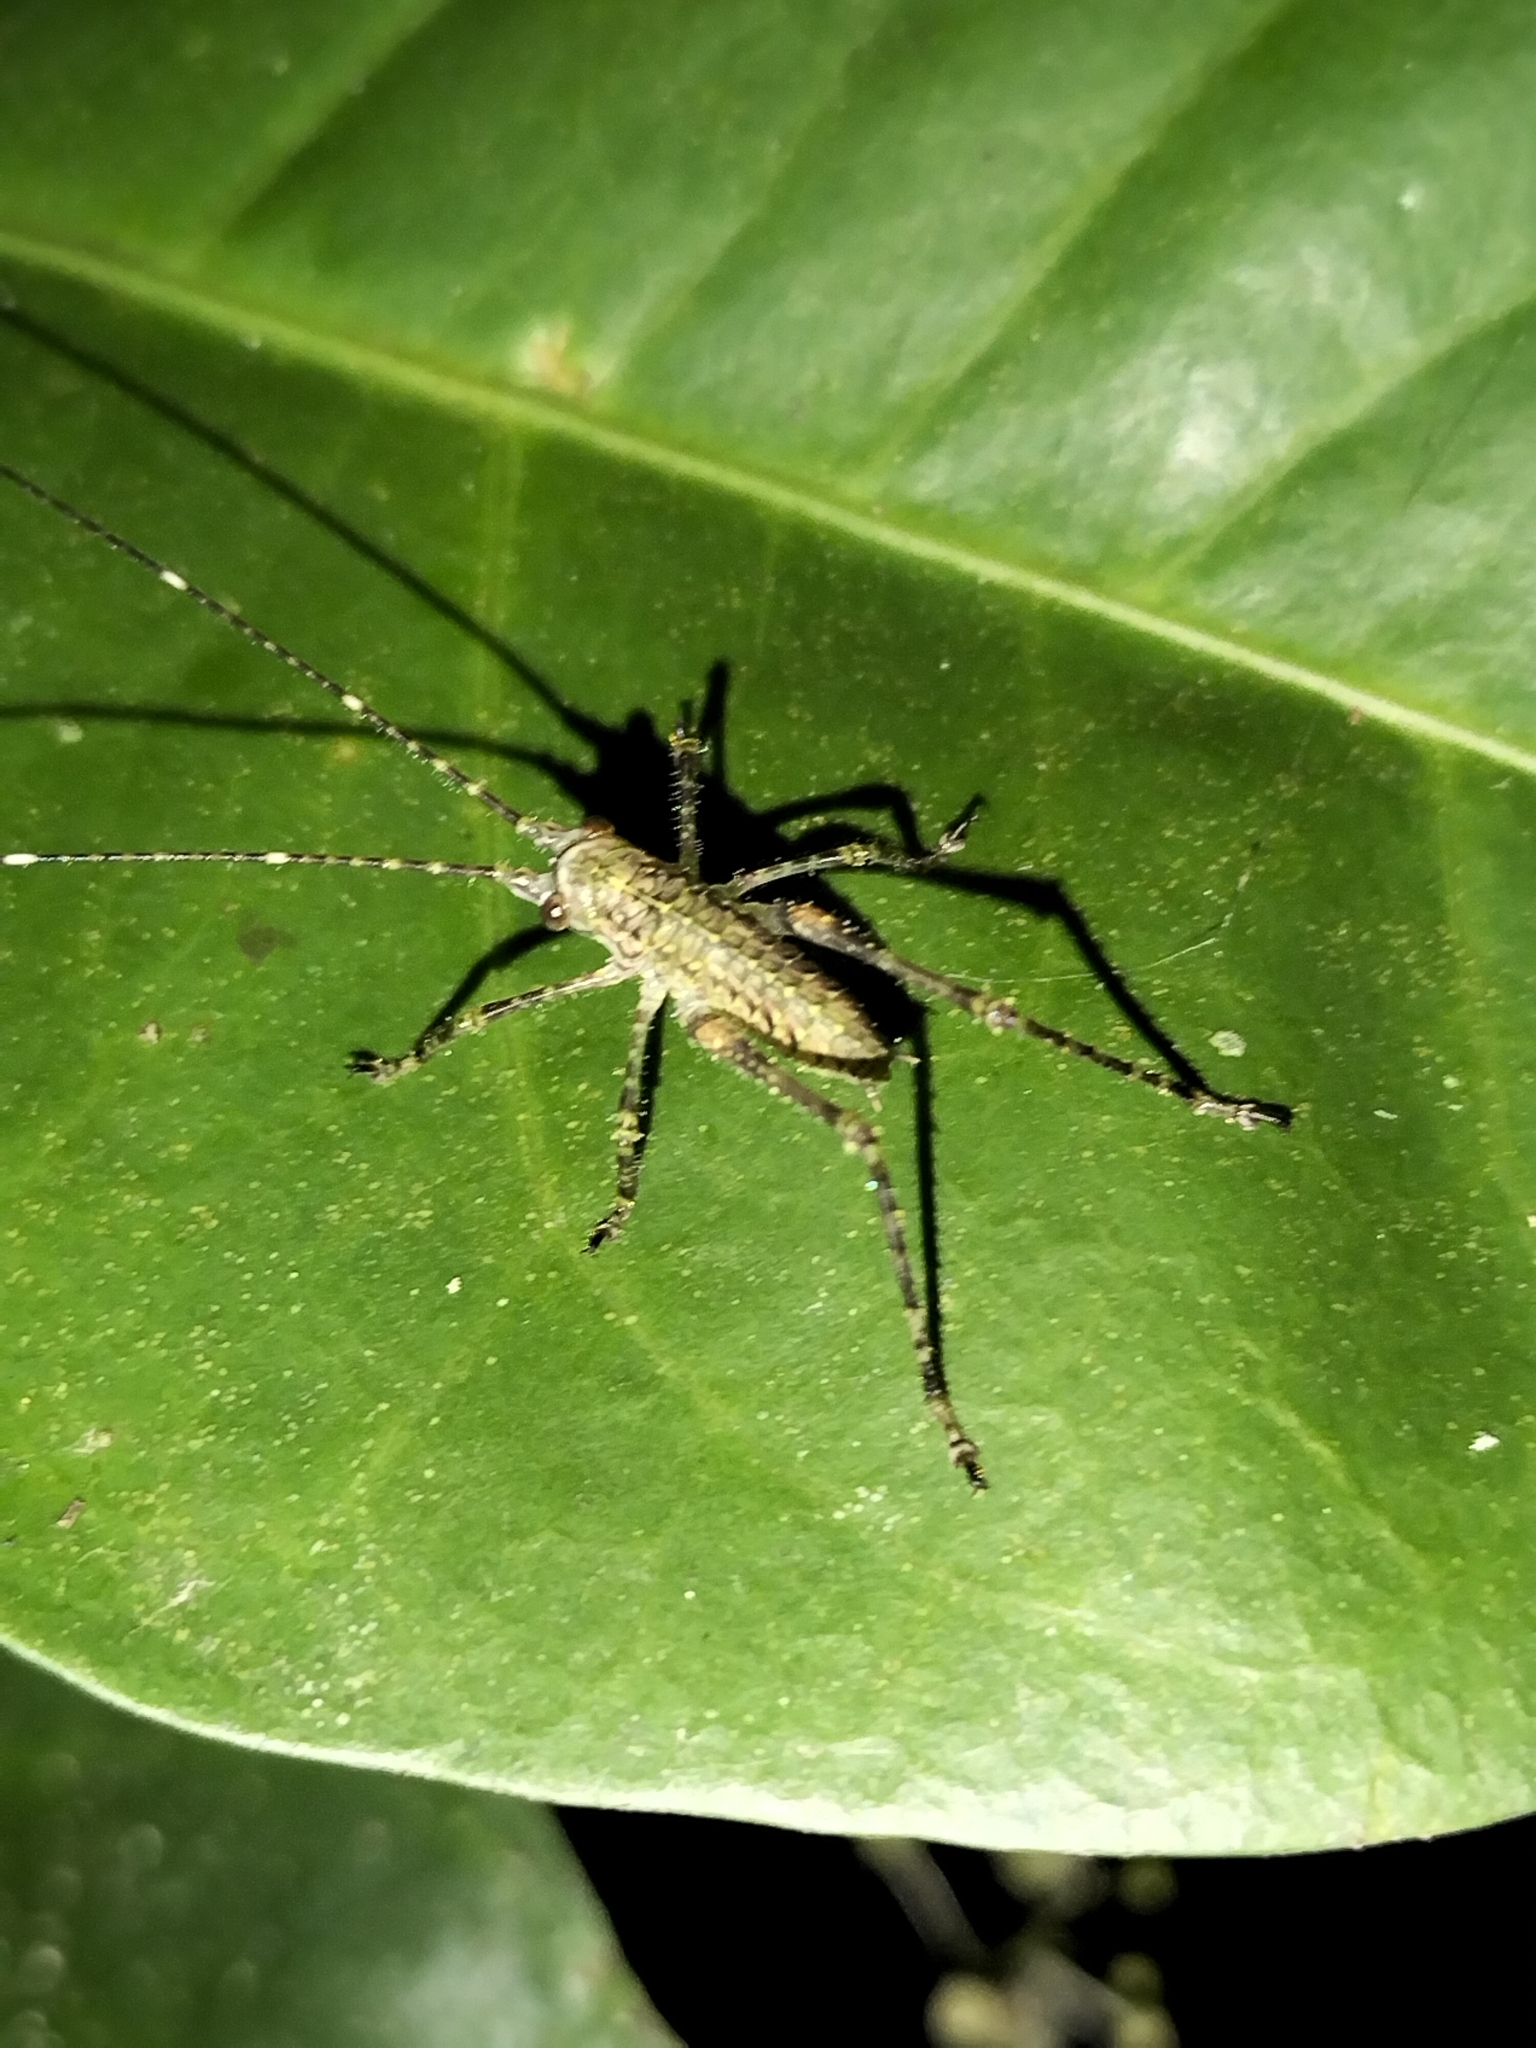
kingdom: Animalia
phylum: Arthropoda
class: Insecta
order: Orthoptera
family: Tettigoniidae
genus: Phricta
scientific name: Phricta spinosa
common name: Giant spiny forest katydid
